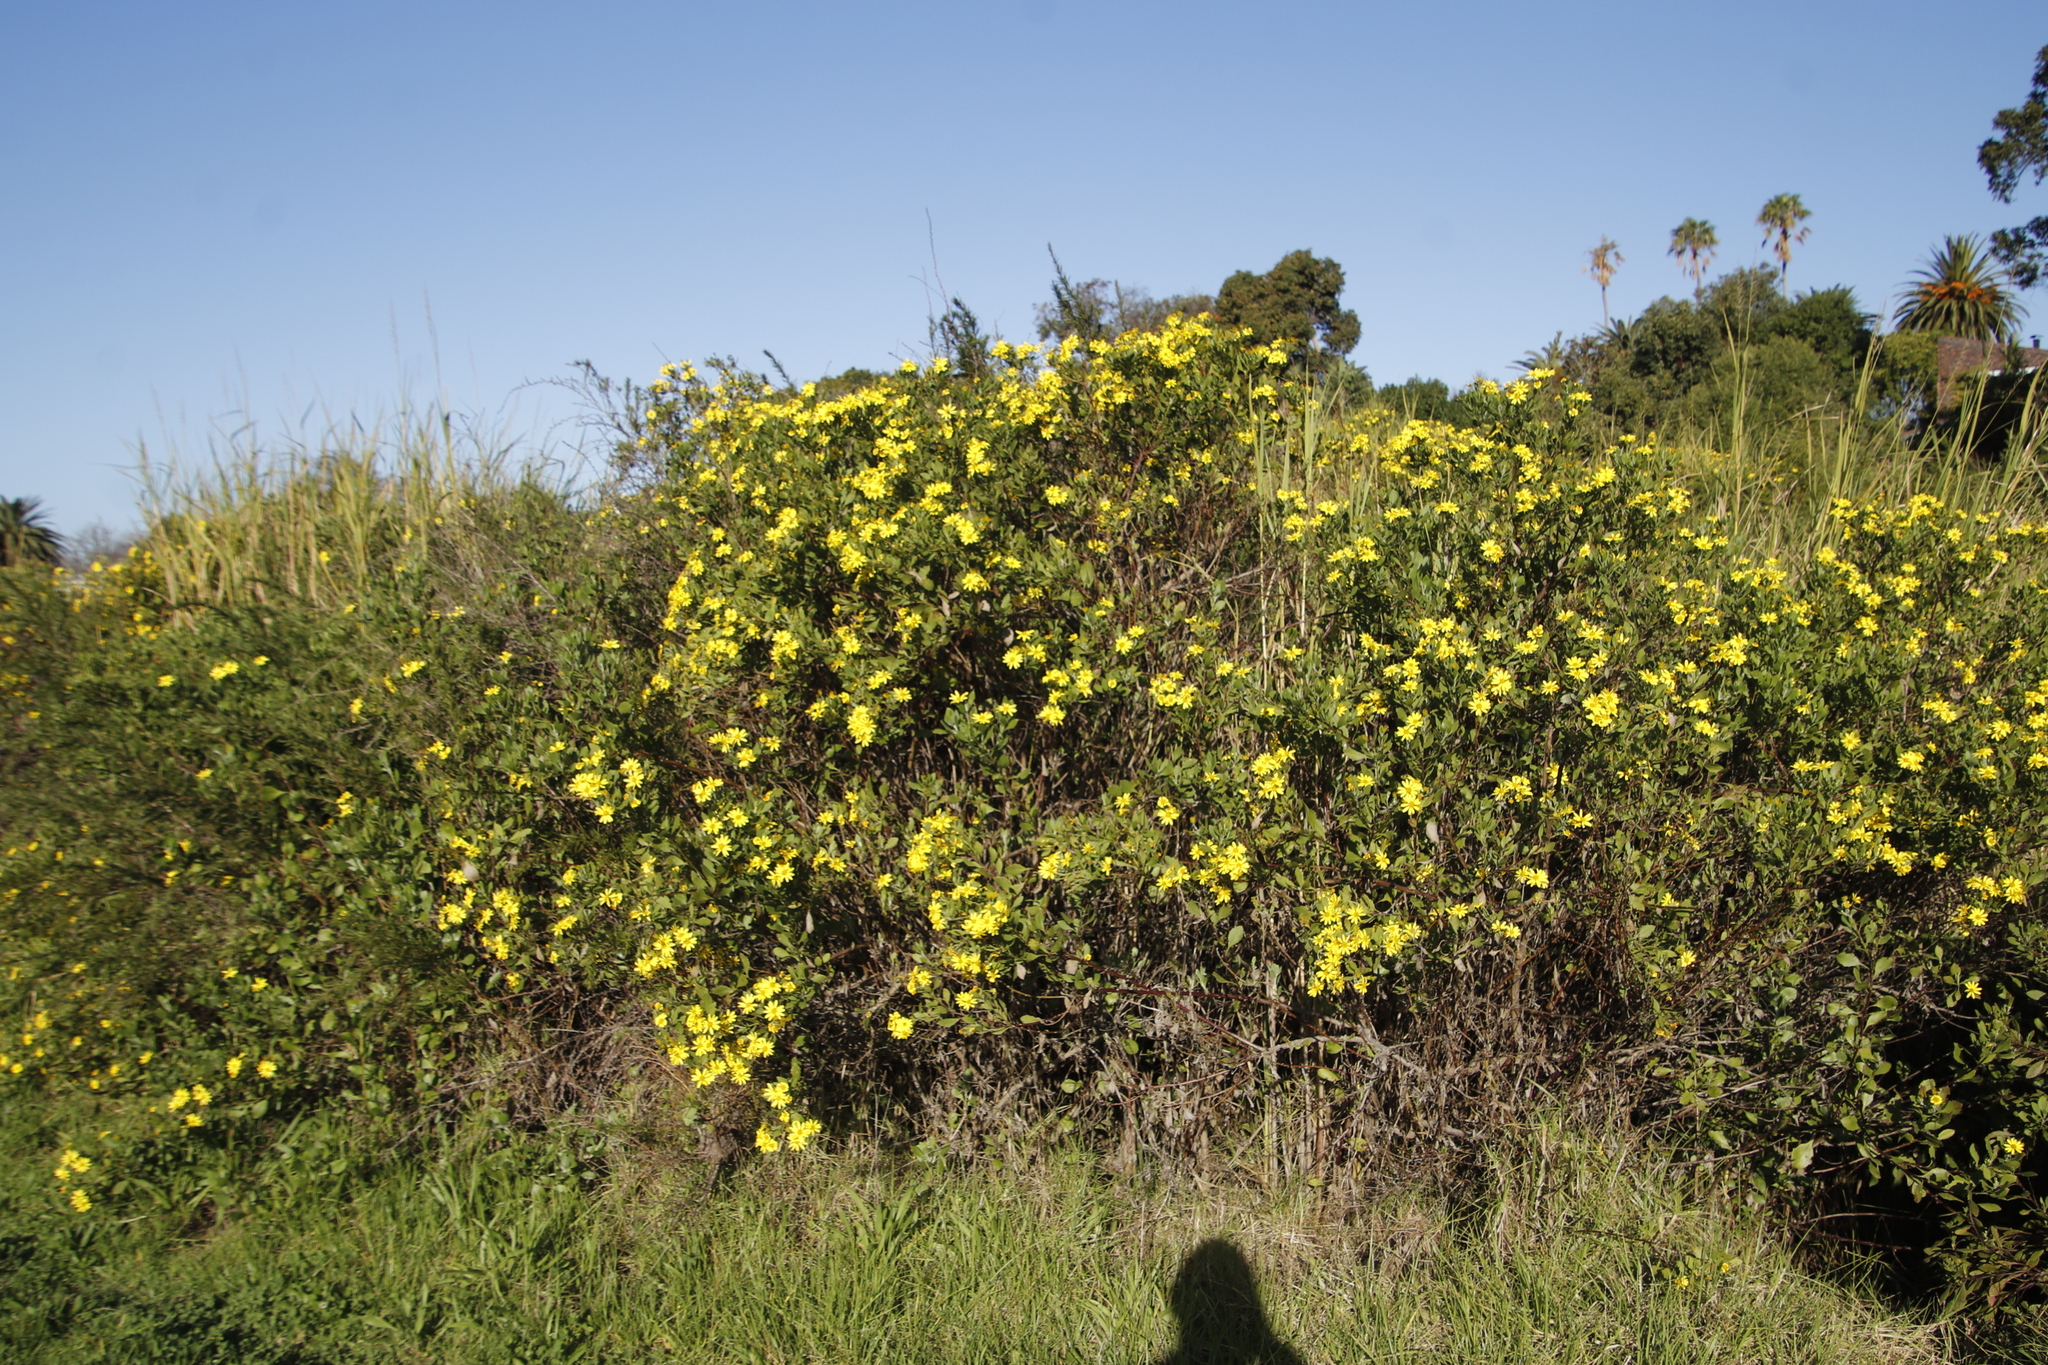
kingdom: Plantae
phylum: Tracheophyta
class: Magnoliopsida
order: Asterales
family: Asteraceae
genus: Osteospermum
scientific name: Osteospermum moniliferum
